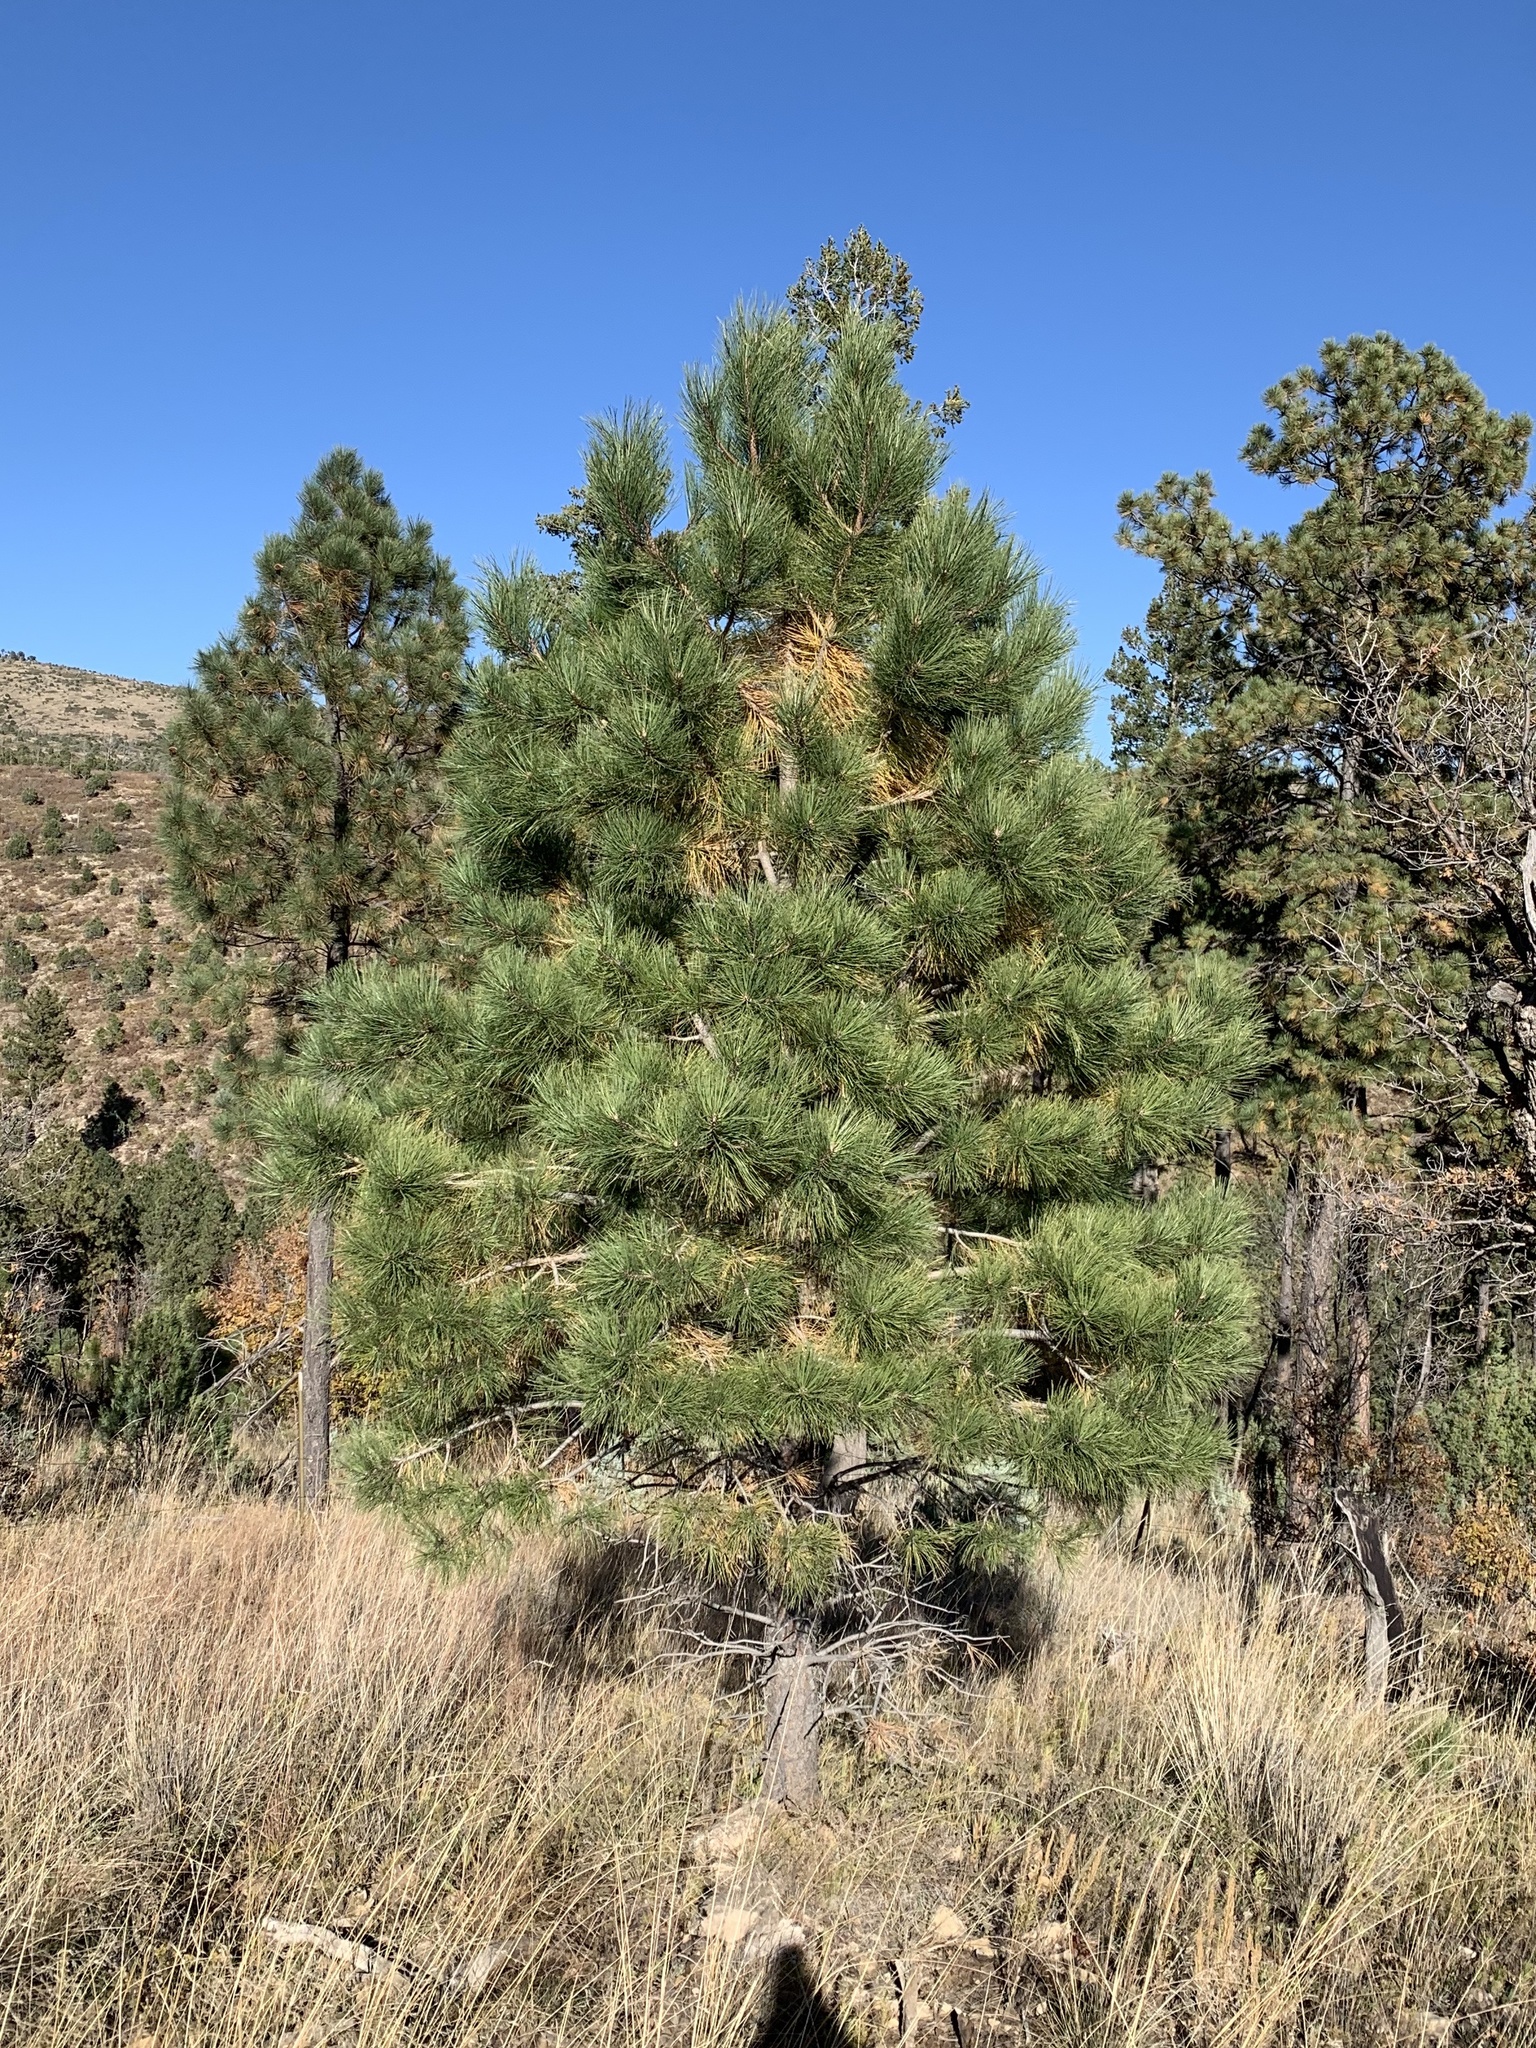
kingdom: Plantae
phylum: Tracheophyta
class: Pinopsida
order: Pinales
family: Pinaceae
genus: Pinus
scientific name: Pinus ponderosa
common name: Western yellow-pine
